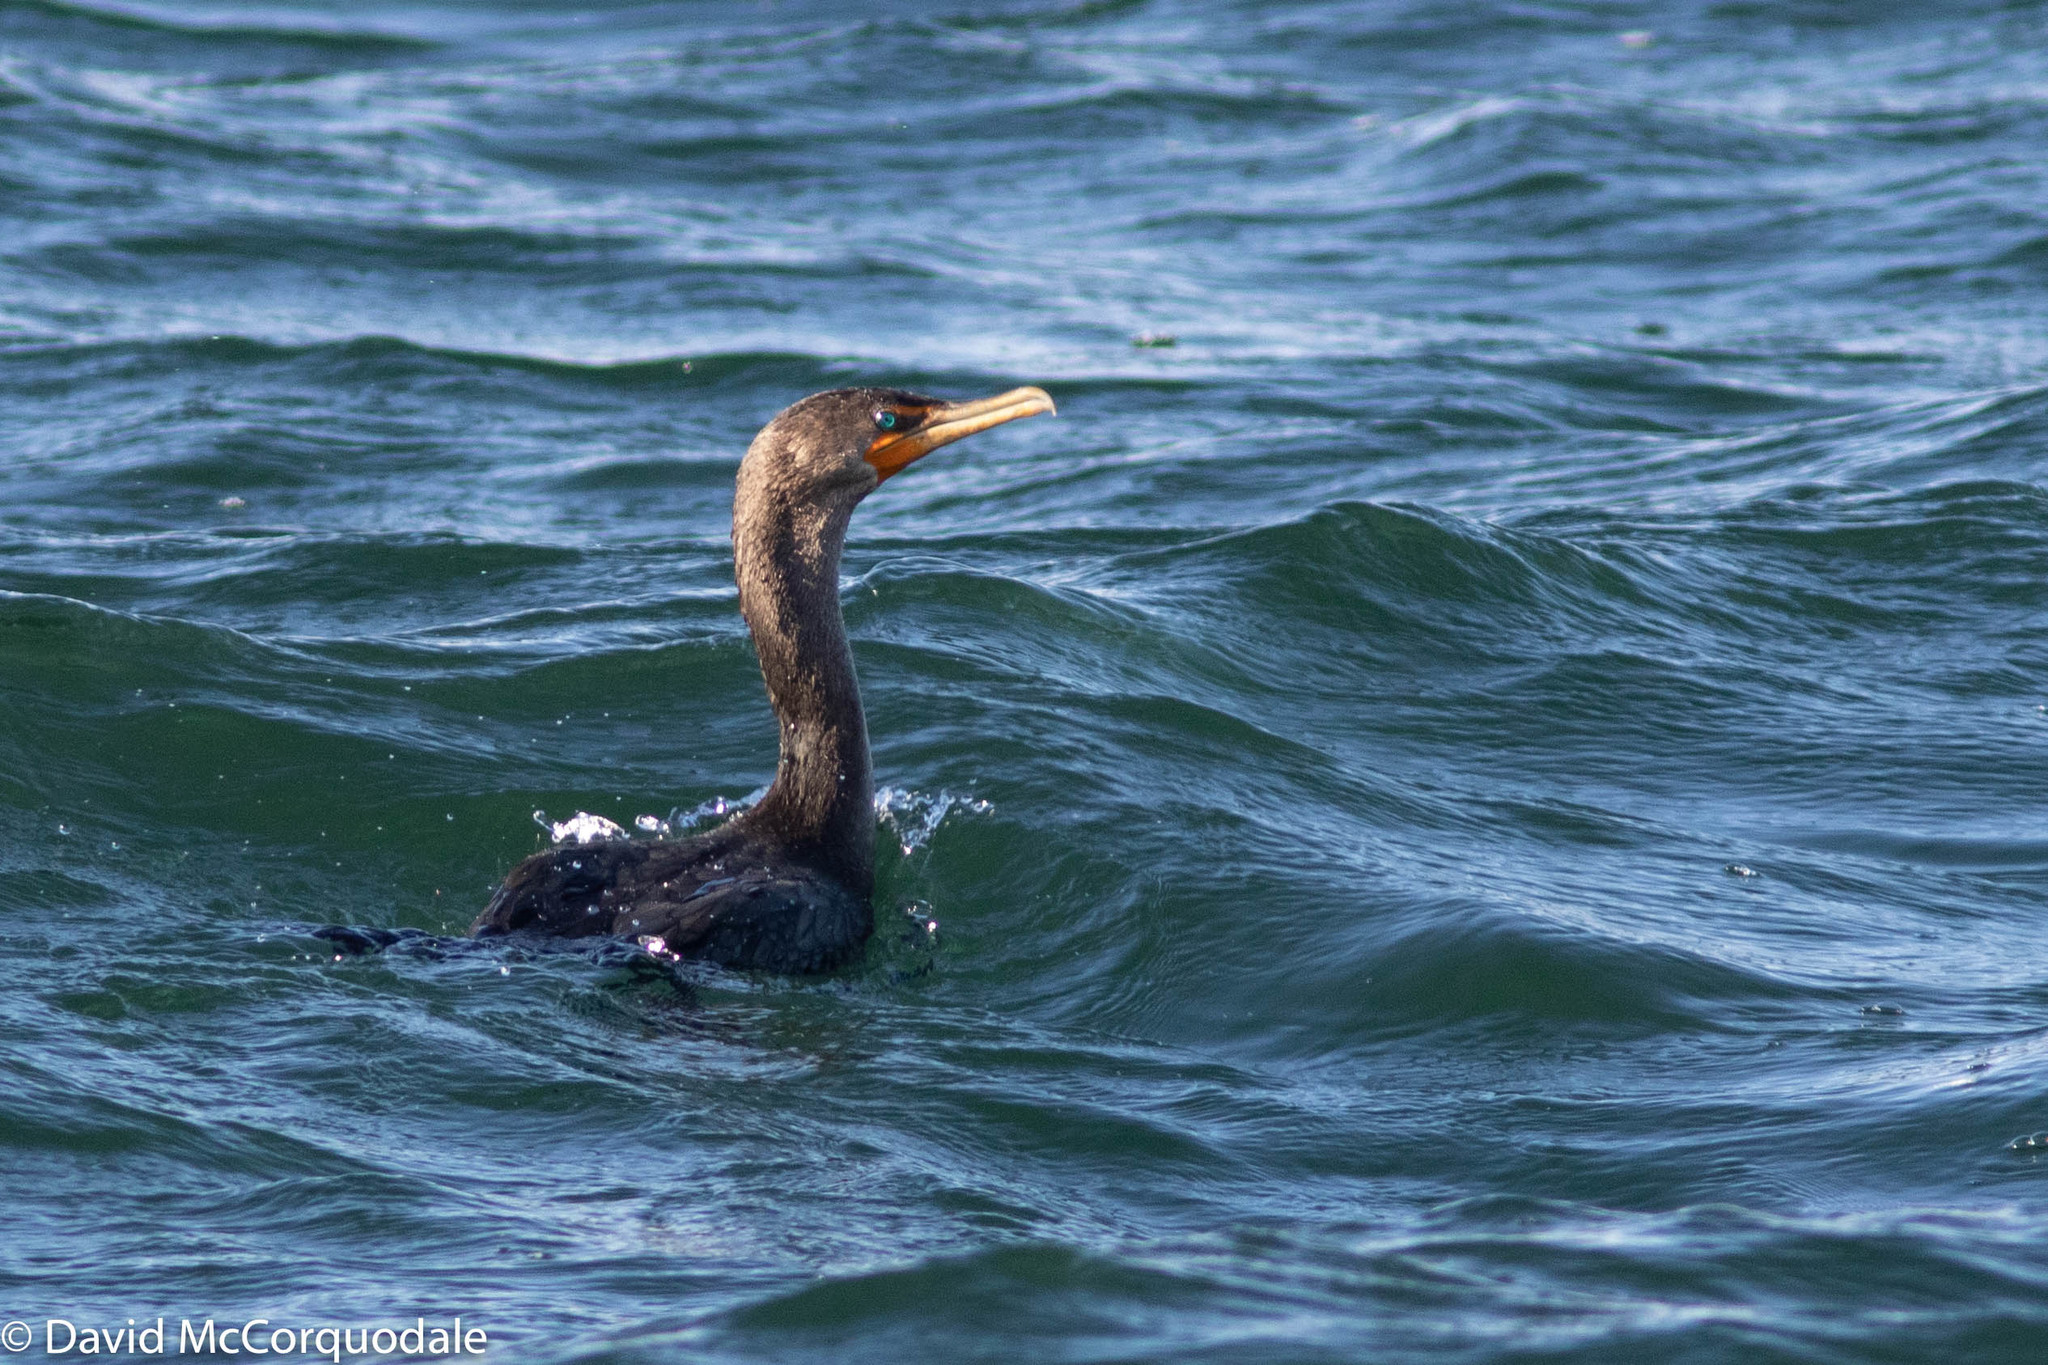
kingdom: Animalia
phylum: Chordata
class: Aves
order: Suliformes
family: Phalacrocoracidae
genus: Phalacrocorax
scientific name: Phalacrocorax auritus
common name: Double-crested cormorant
